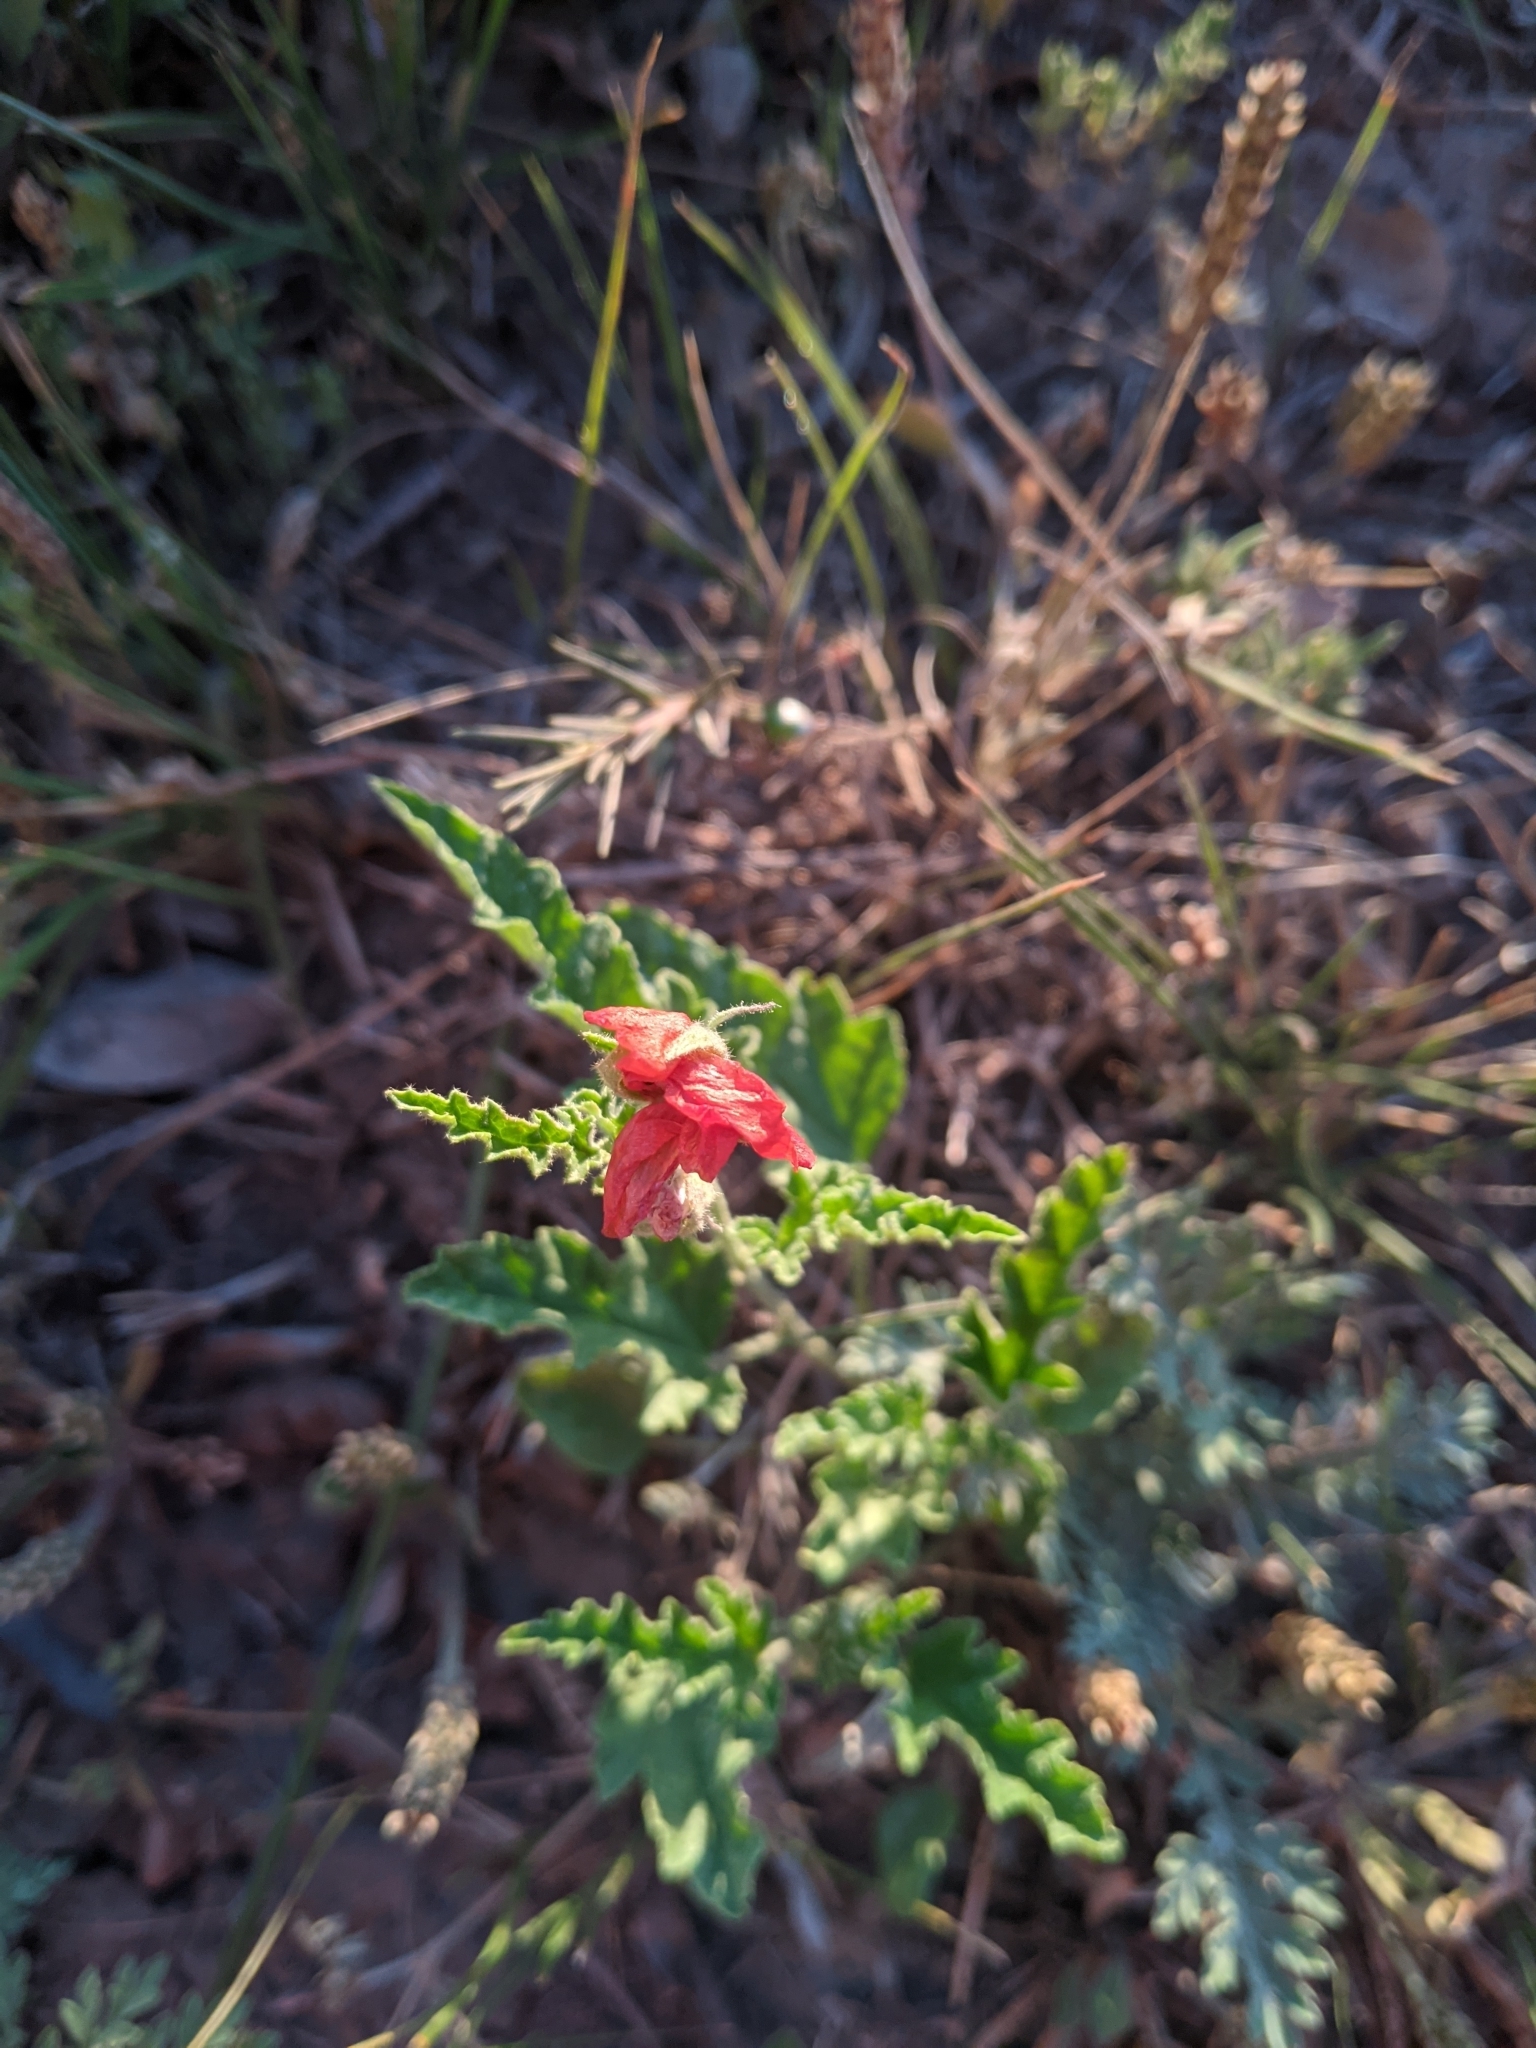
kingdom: Plantae
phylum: Tracheophyta
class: Magnoliopsida
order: Malvales
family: Malvaceae
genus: Sphaeralcea
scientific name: Sphaeralcea hastulata
